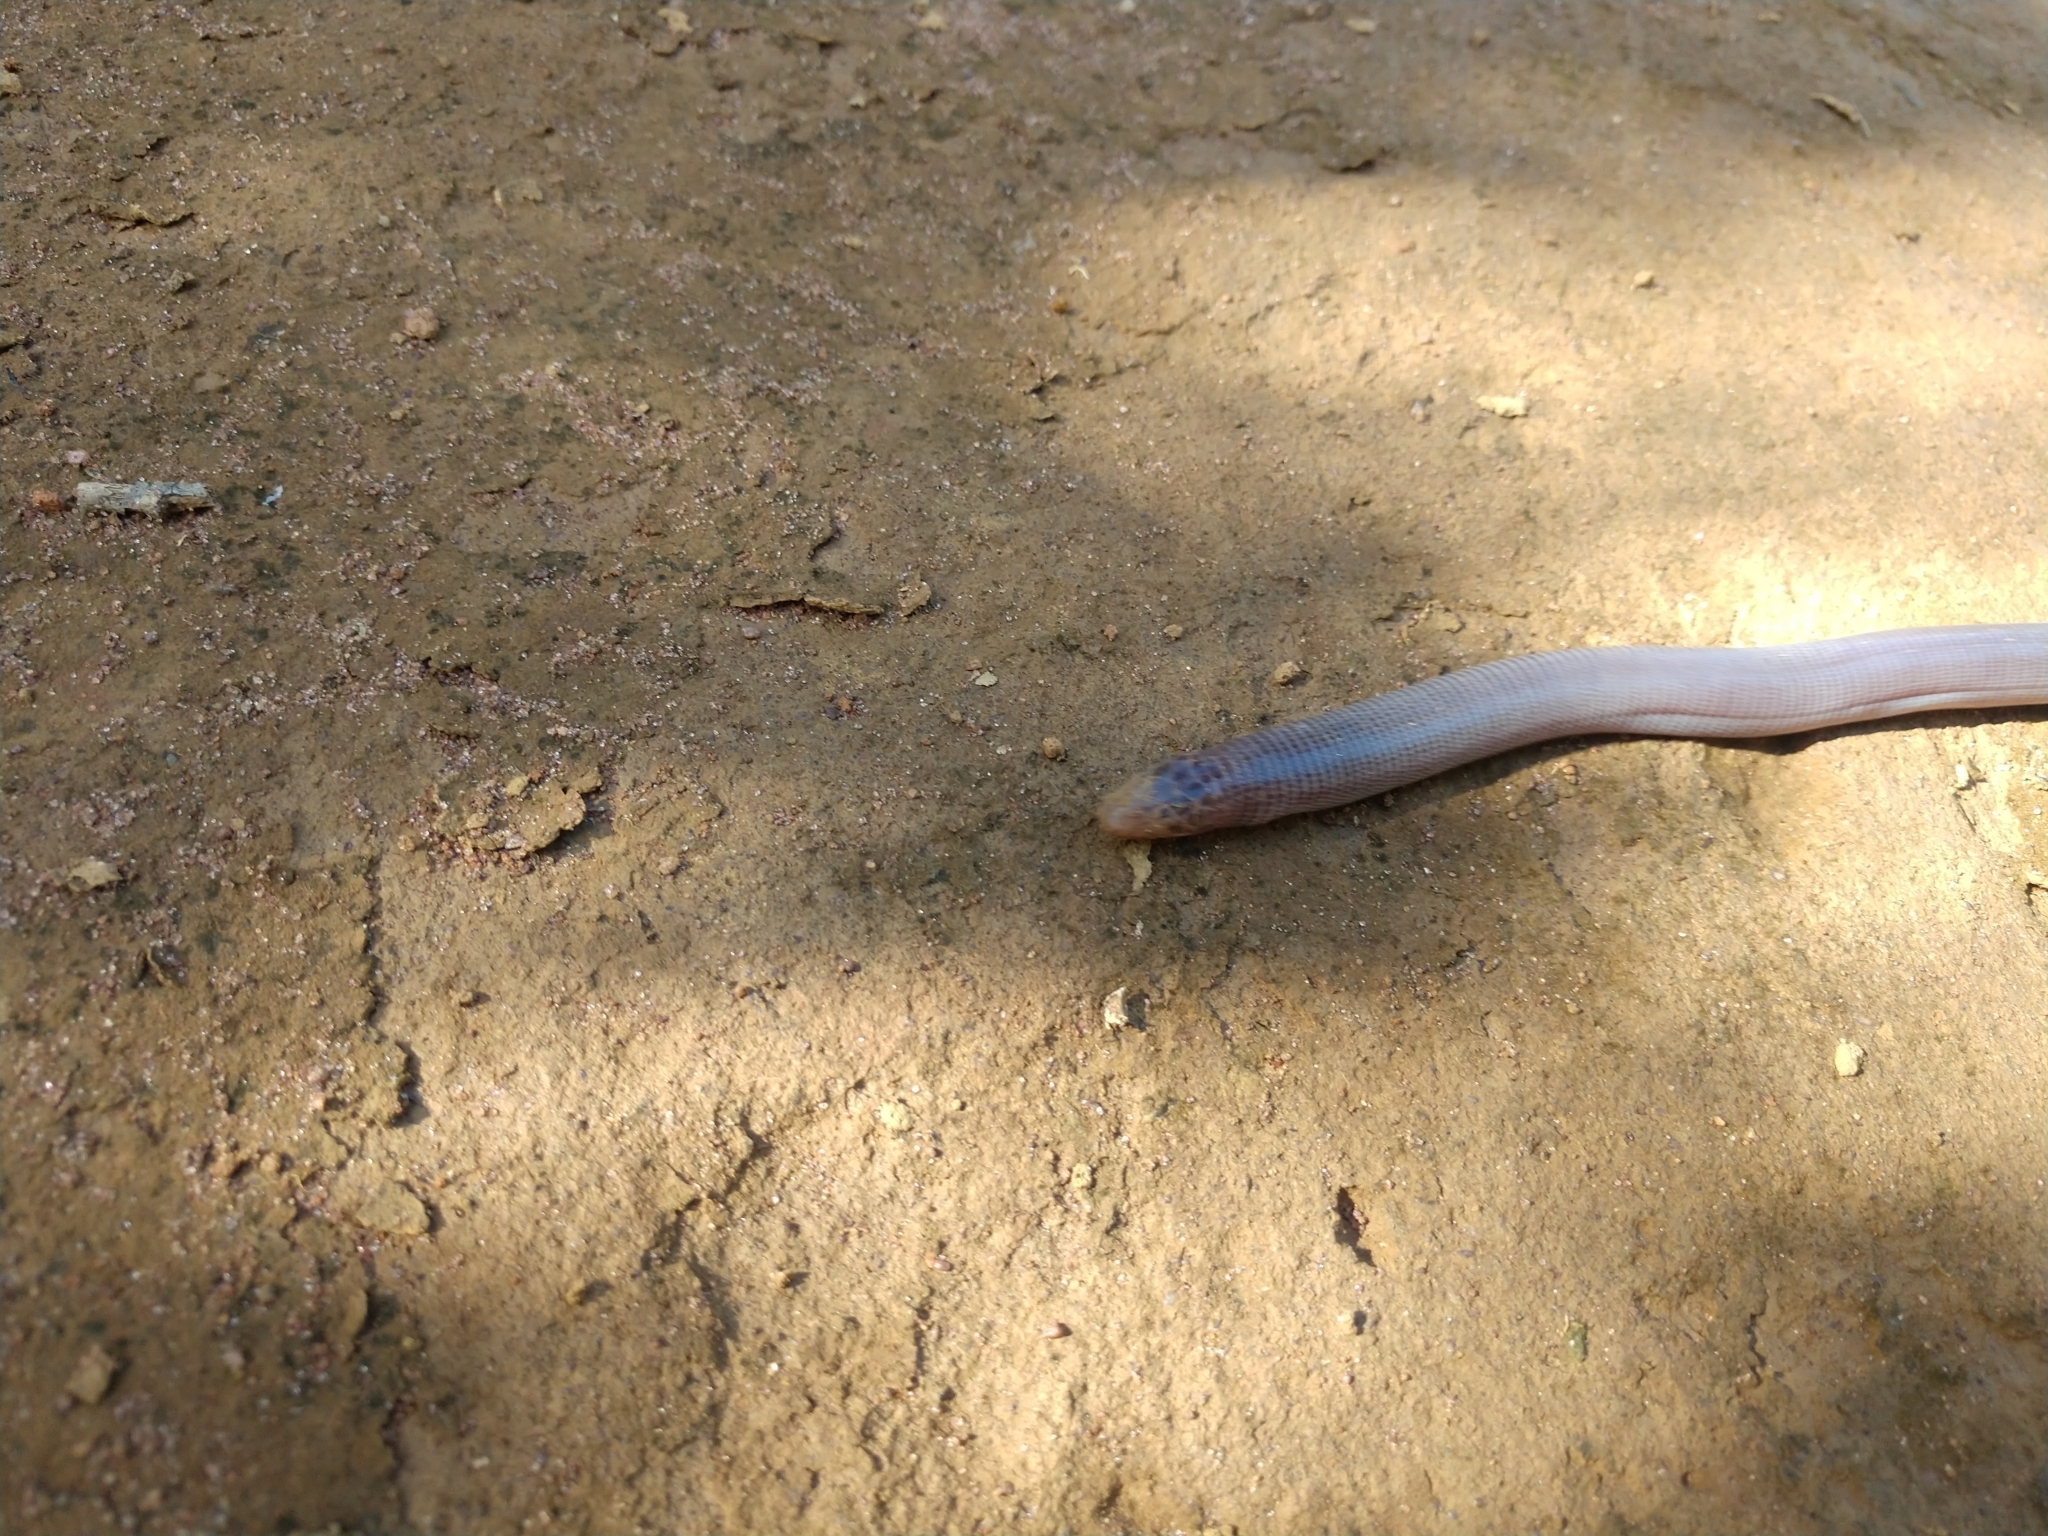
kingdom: Animalia
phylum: Chordata
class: Squamata
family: Amphisbaenidae
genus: Amphisbaena
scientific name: Amphisbaena mertensii
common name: Mertens' worm lizard
